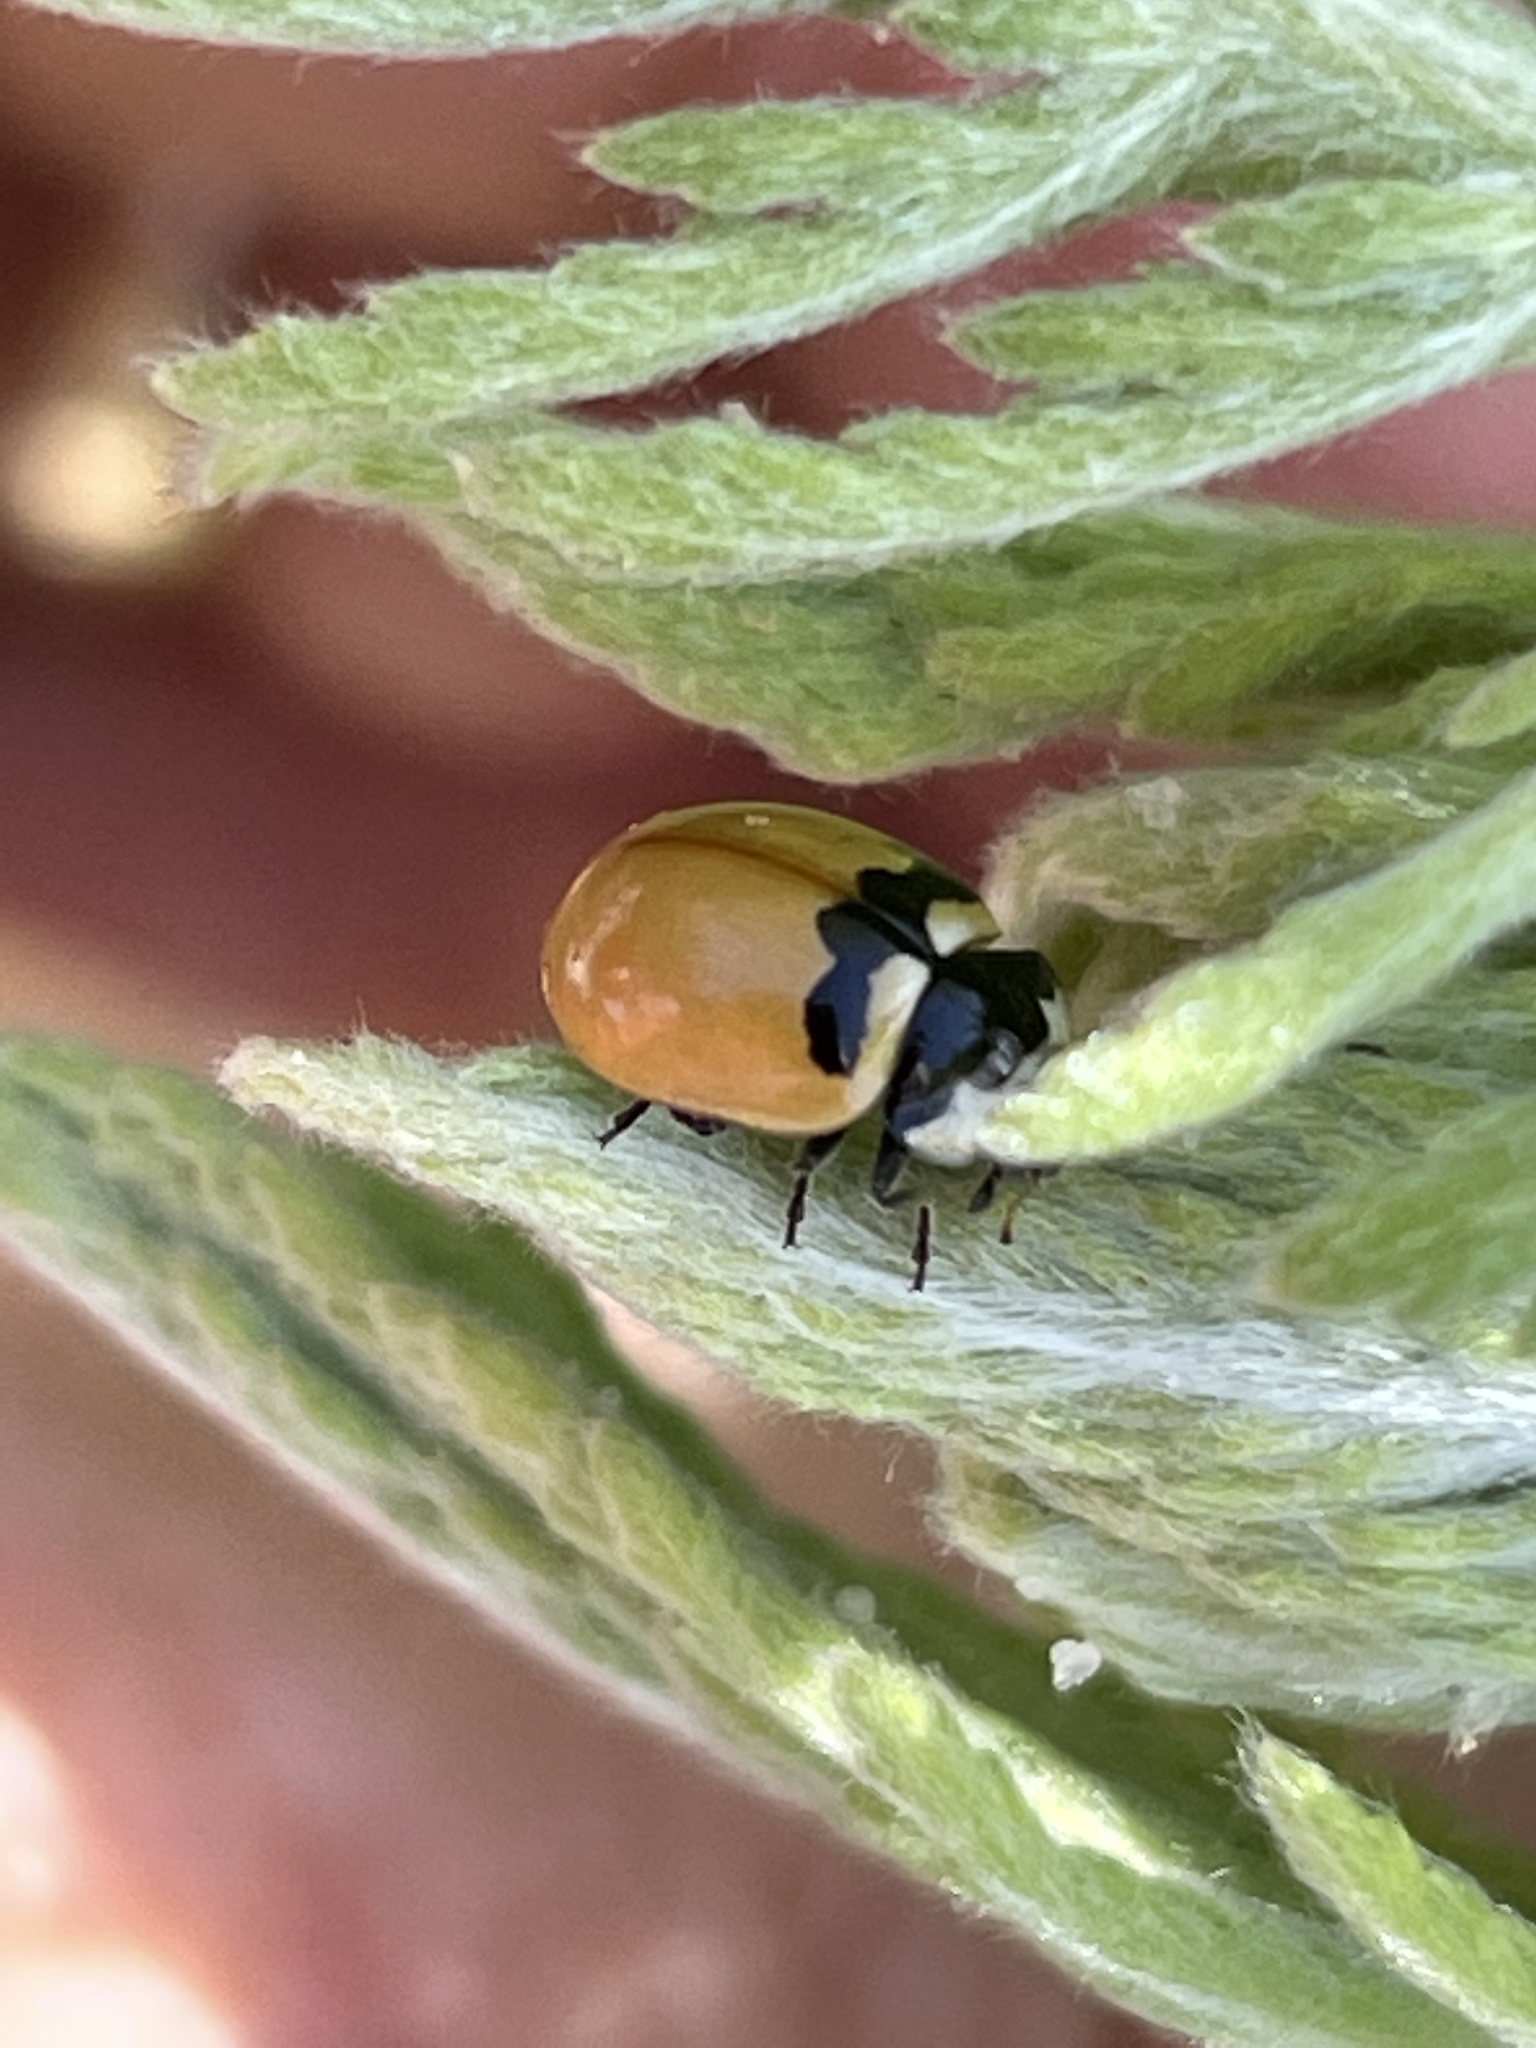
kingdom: Animalia
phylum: Arthropoda
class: Insecta
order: Coleoptera
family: Coccinellidae
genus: Coccinella
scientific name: Coccinella trifasciata
